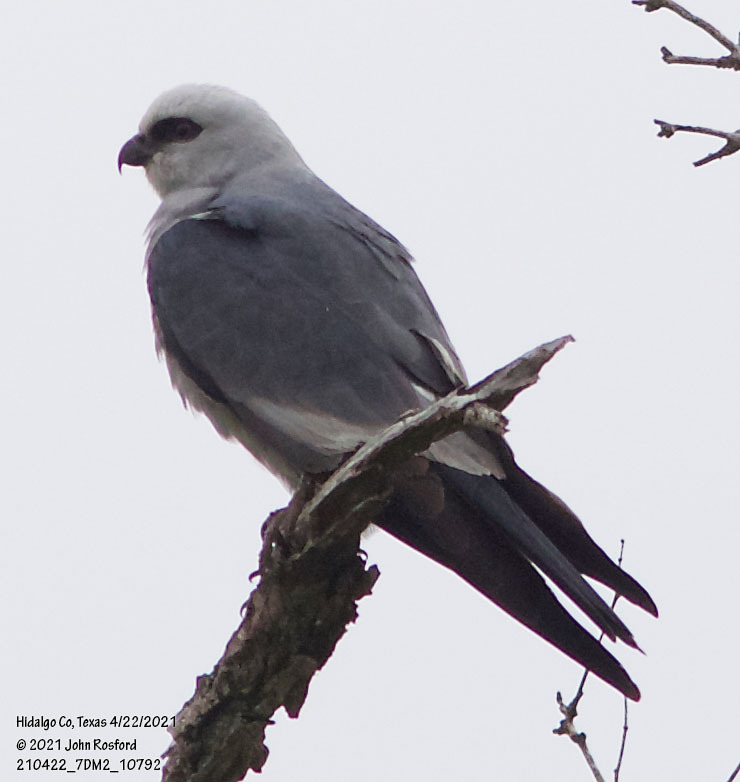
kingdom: Animalia
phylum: Chordata
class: Aves
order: Accipitriformes
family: Accipitridae
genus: Ictinia
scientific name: Ictinia mississippiensis
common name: Mississippi kite
